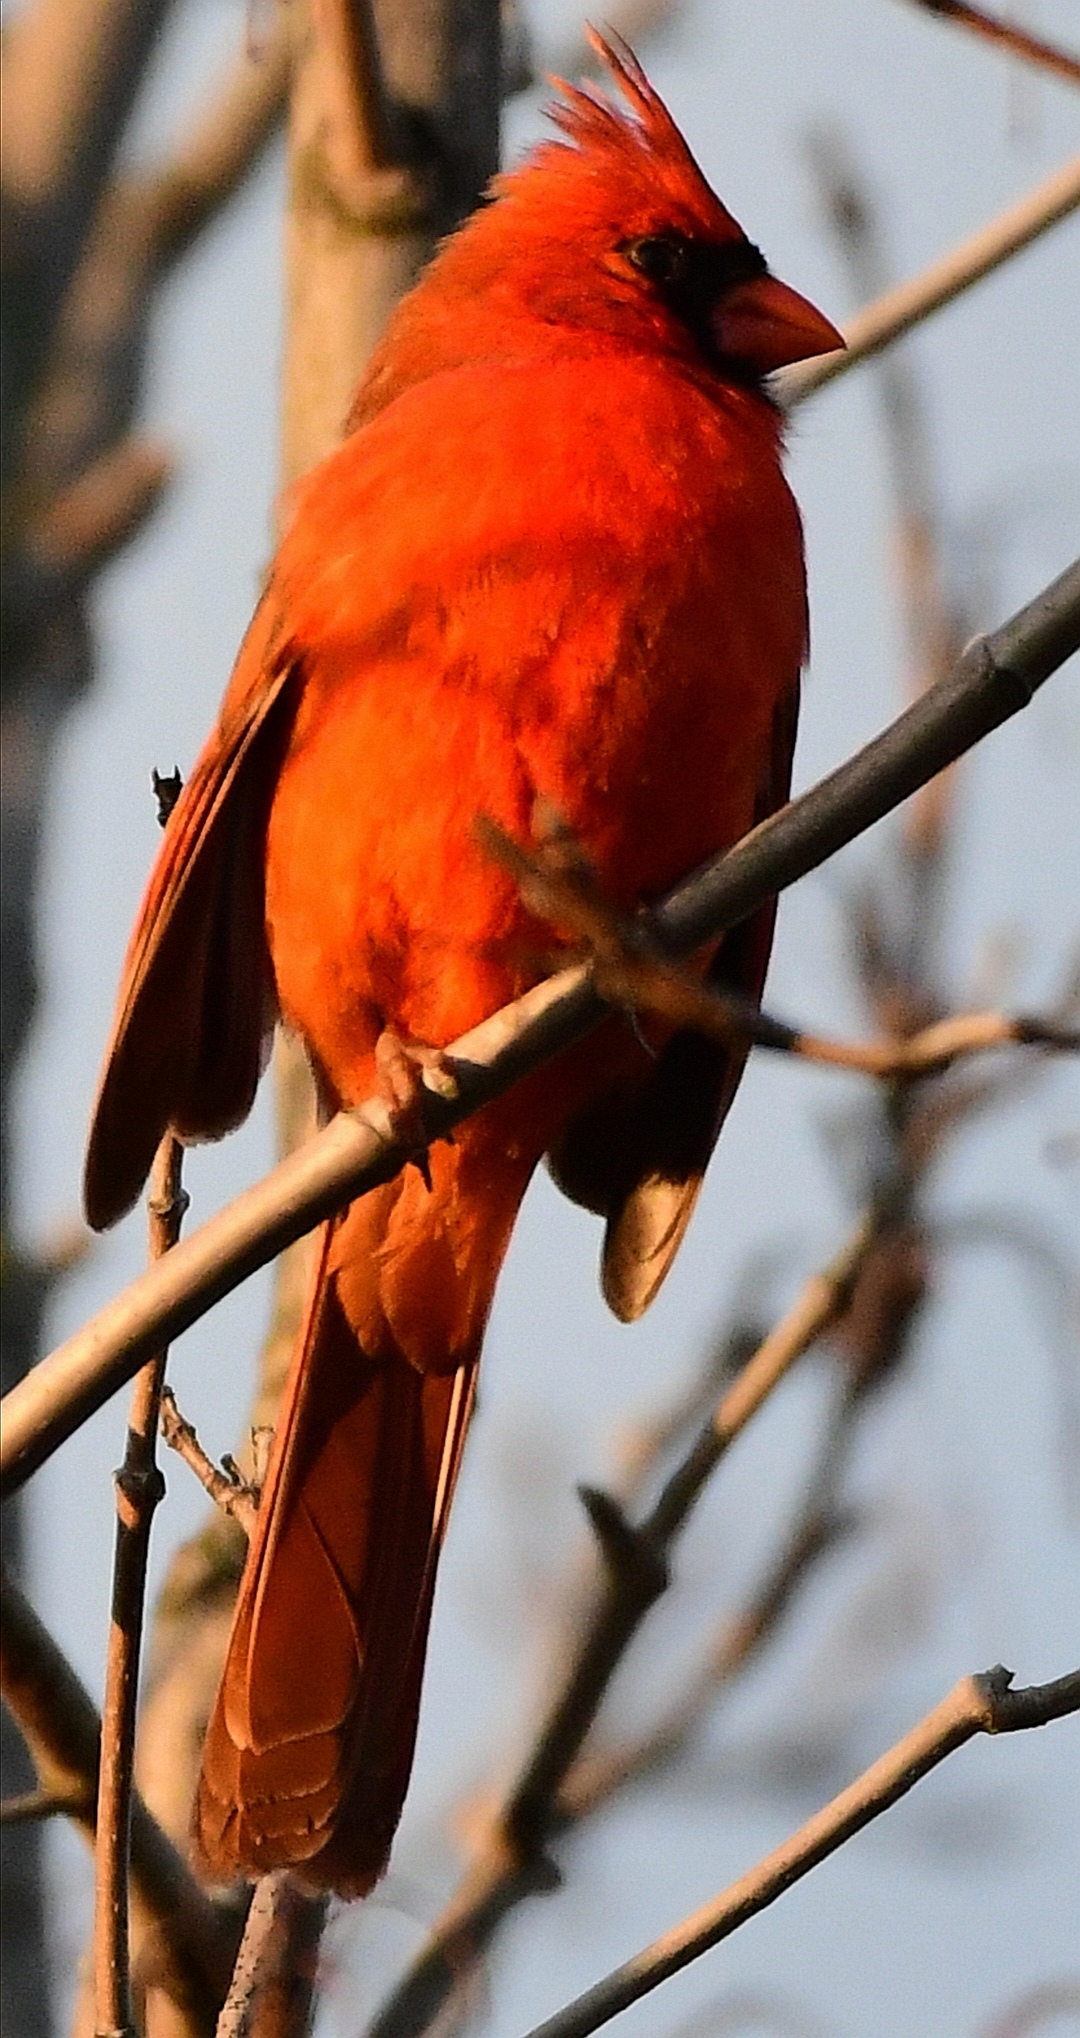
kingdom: Animalia
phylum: Chordata
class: Aves
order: Passeriformes
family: Cardinalidae
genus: Cardinalis
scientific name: Cardinalis cardinalis
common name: Northern cardinal
